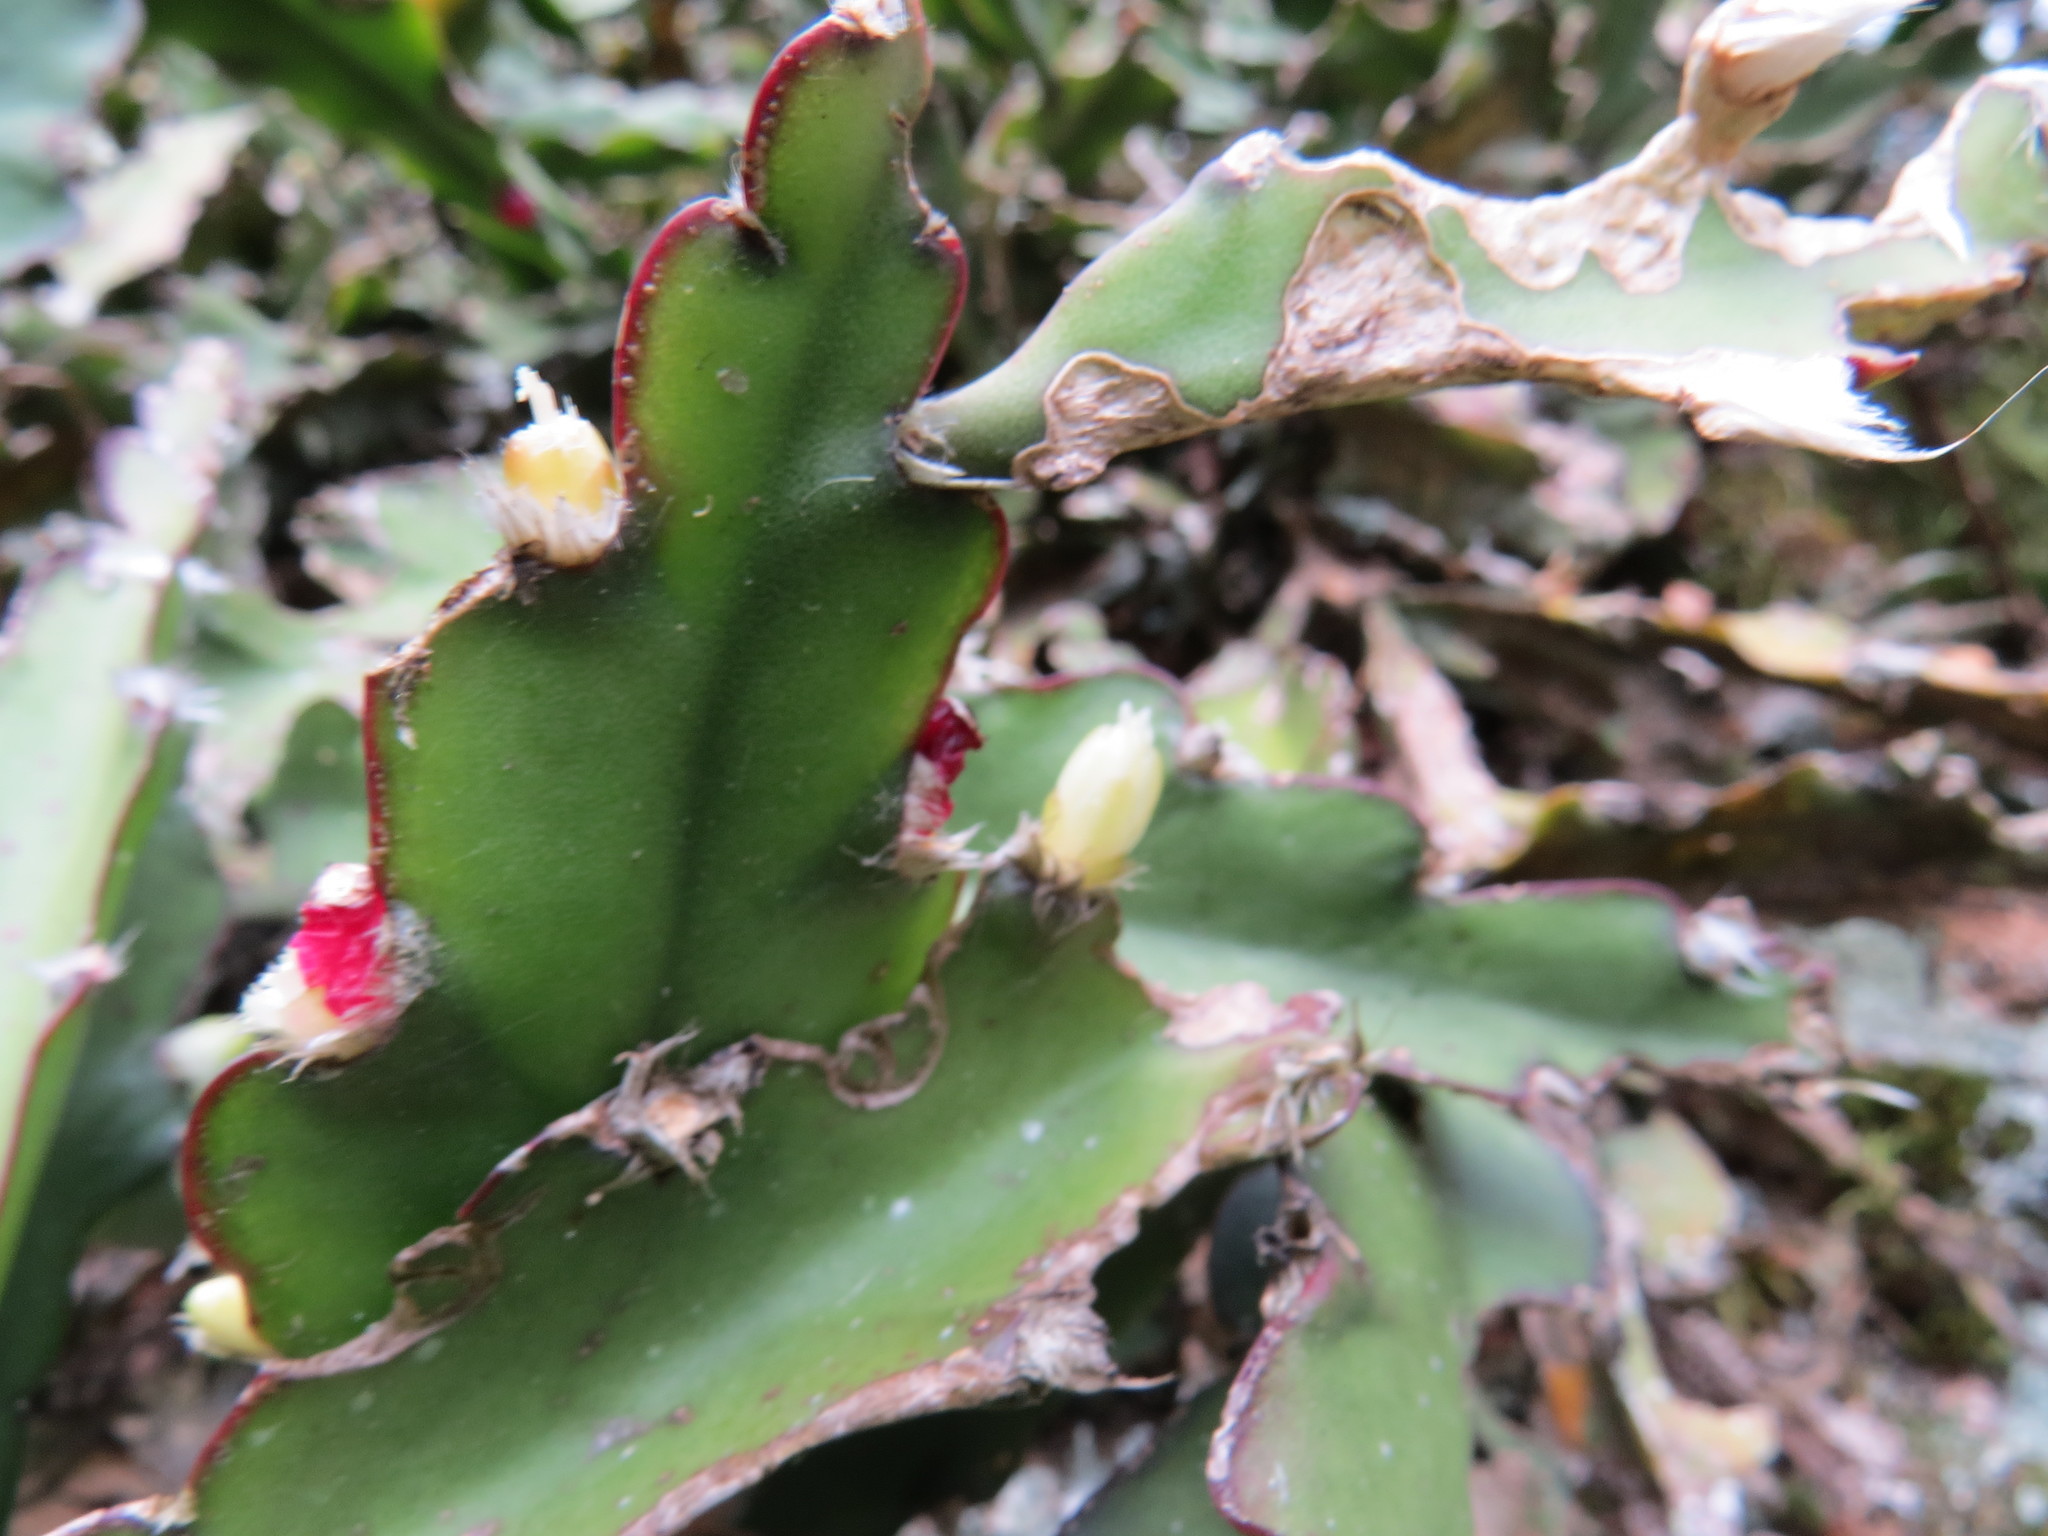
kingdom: Plantae
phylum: Tracheophyta
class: Magnoliopsida
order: Caryophyllales
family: Cactaceae
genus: Lepismium
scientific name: Lepismium cruciforme
